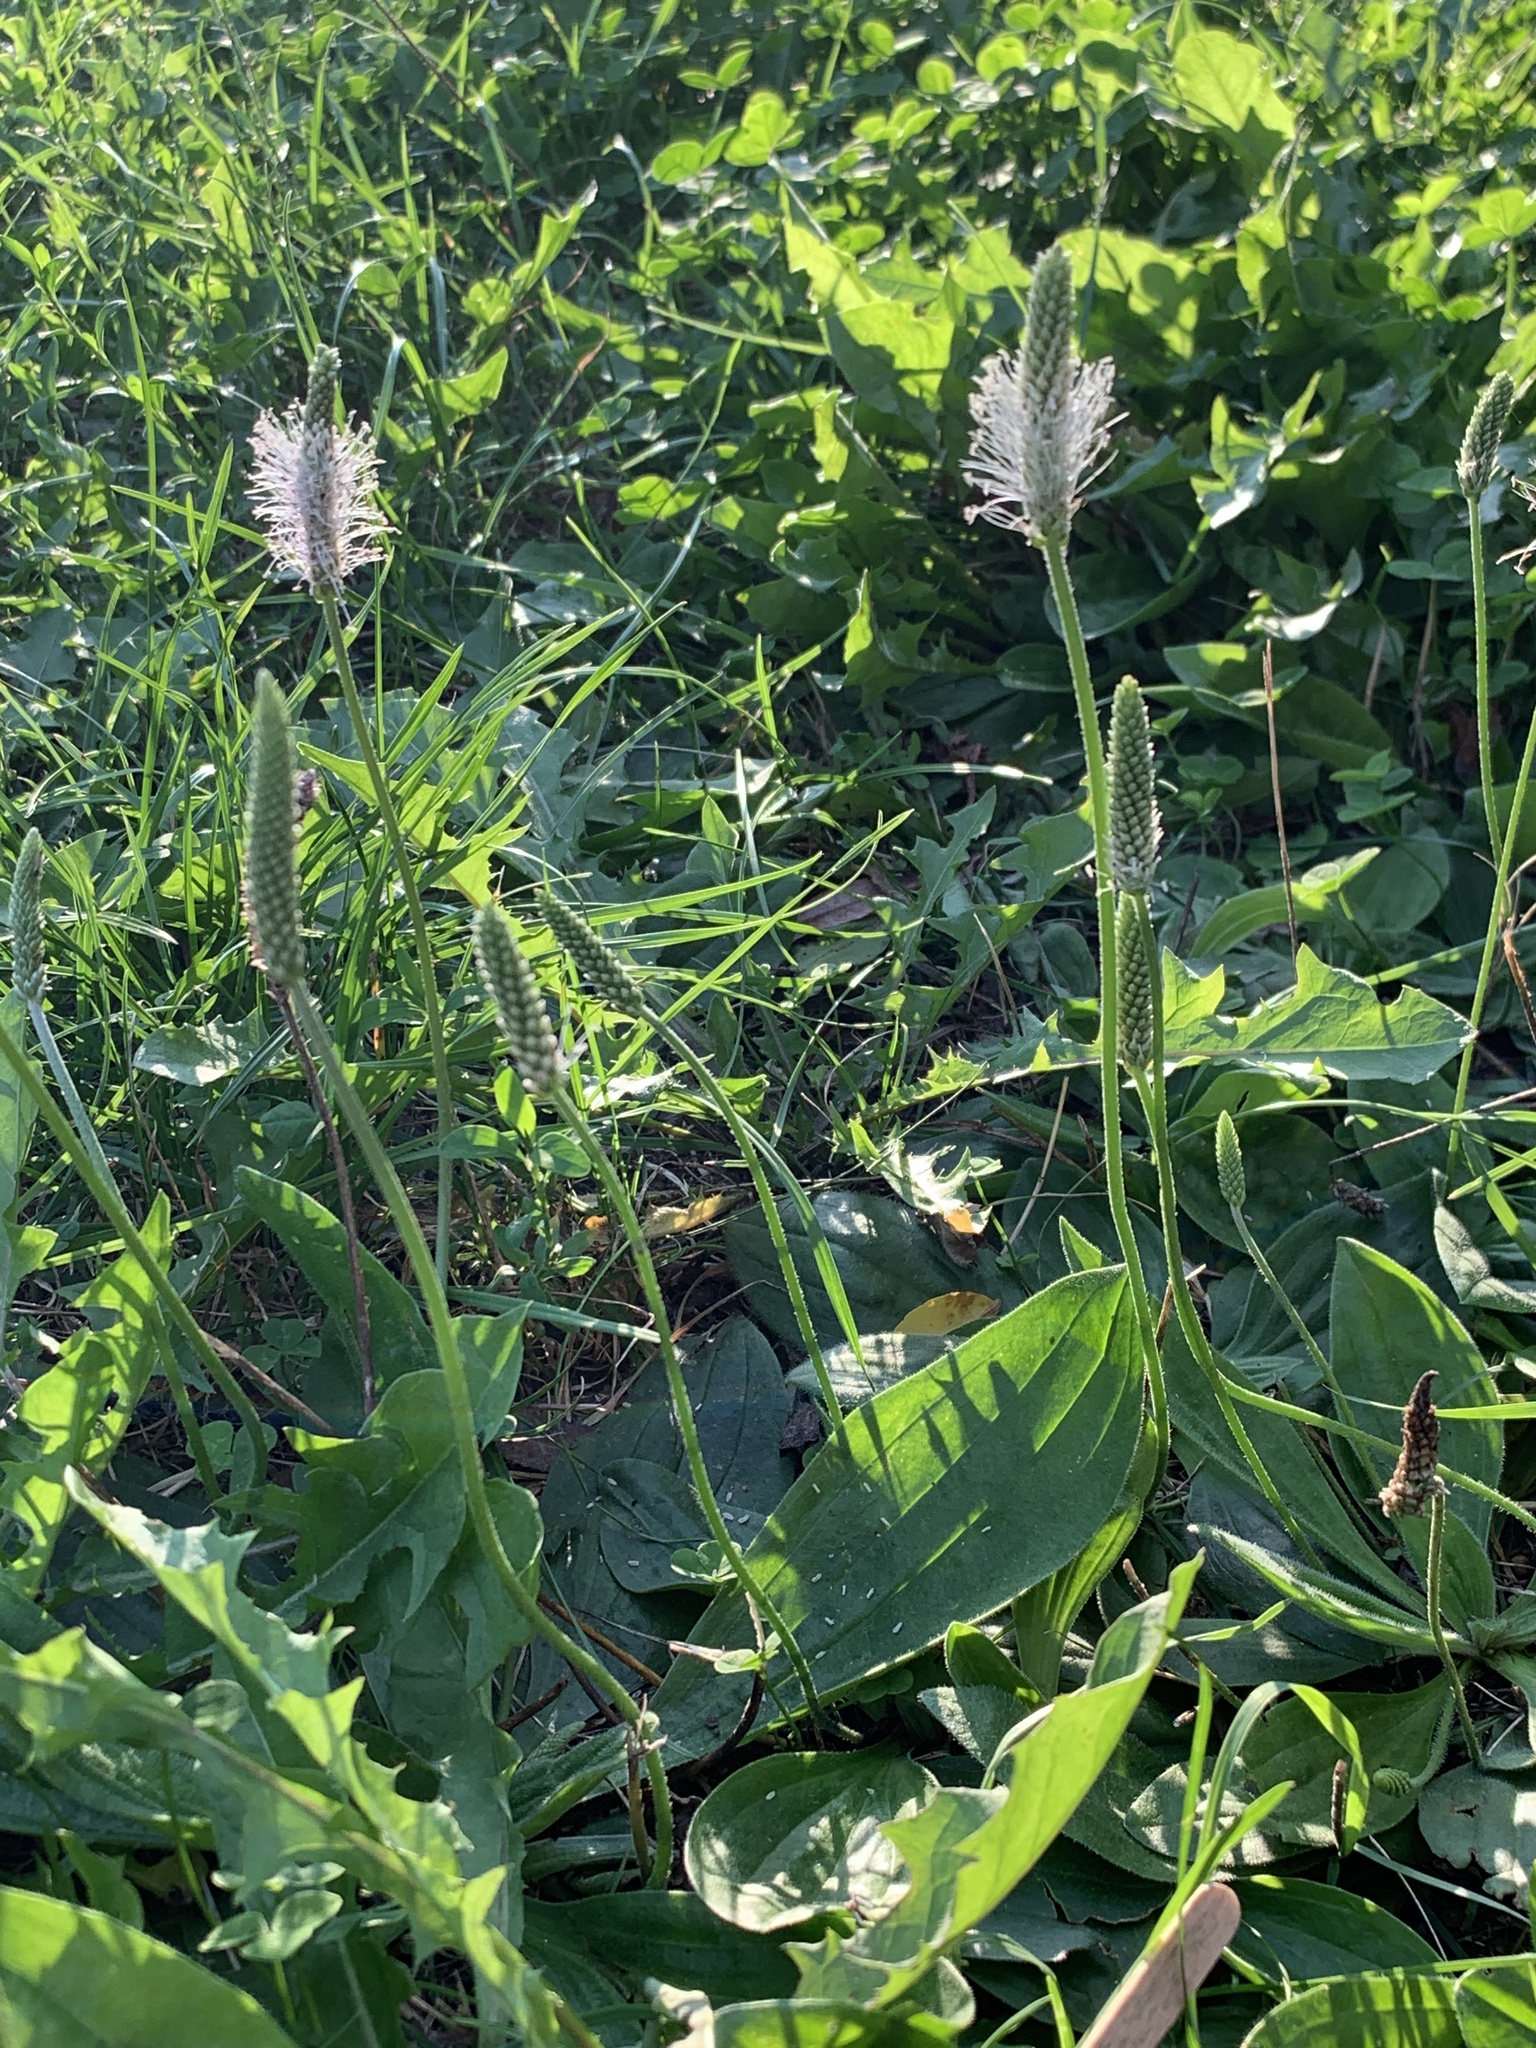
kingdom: Plantae
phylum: Tracheophyta
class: Magnoliopsida
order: Lamiales
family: Plantaginaceae
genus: Plantago
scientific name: Plantago media
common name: Hoary plantain
